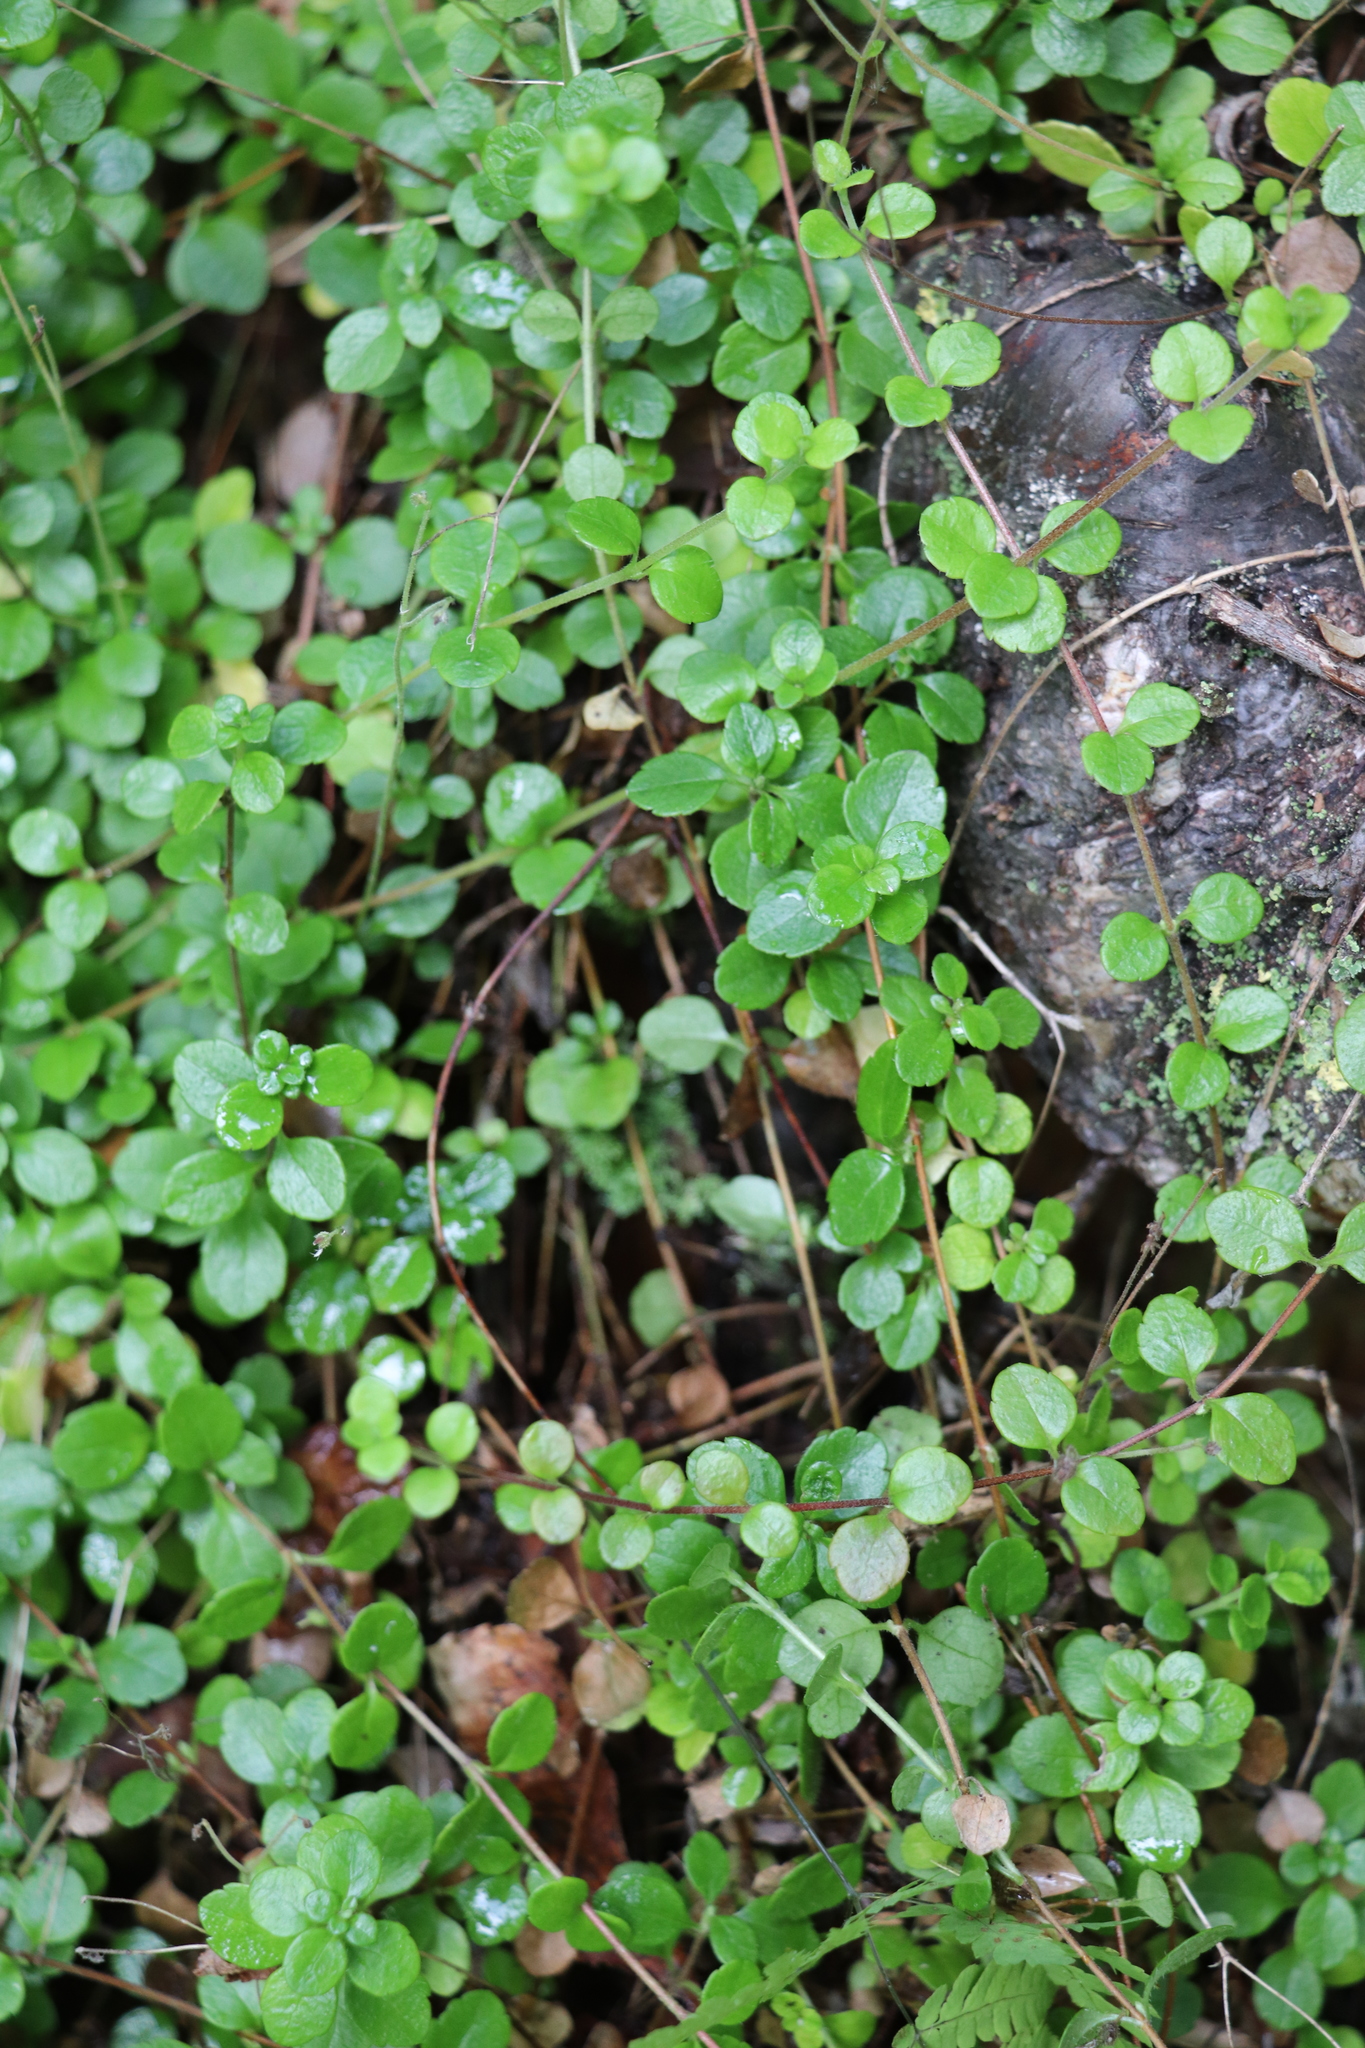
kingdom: Plantae
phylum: Tracheophyta
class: Magnoliopsida
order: Dipsacales
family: Caprifoliaceae
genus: Linnaea
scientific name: Linnaea borealis
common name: Twinflower
